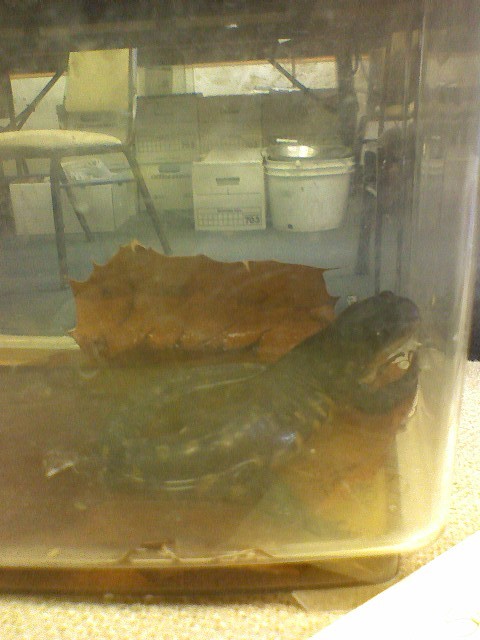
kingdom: Animalia
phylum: Chordata
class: Amphibia
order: Caudata
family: Ambystomatidae
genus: Ambystoma
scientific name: Ambystoma tigrinum
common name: Tiger salamander
